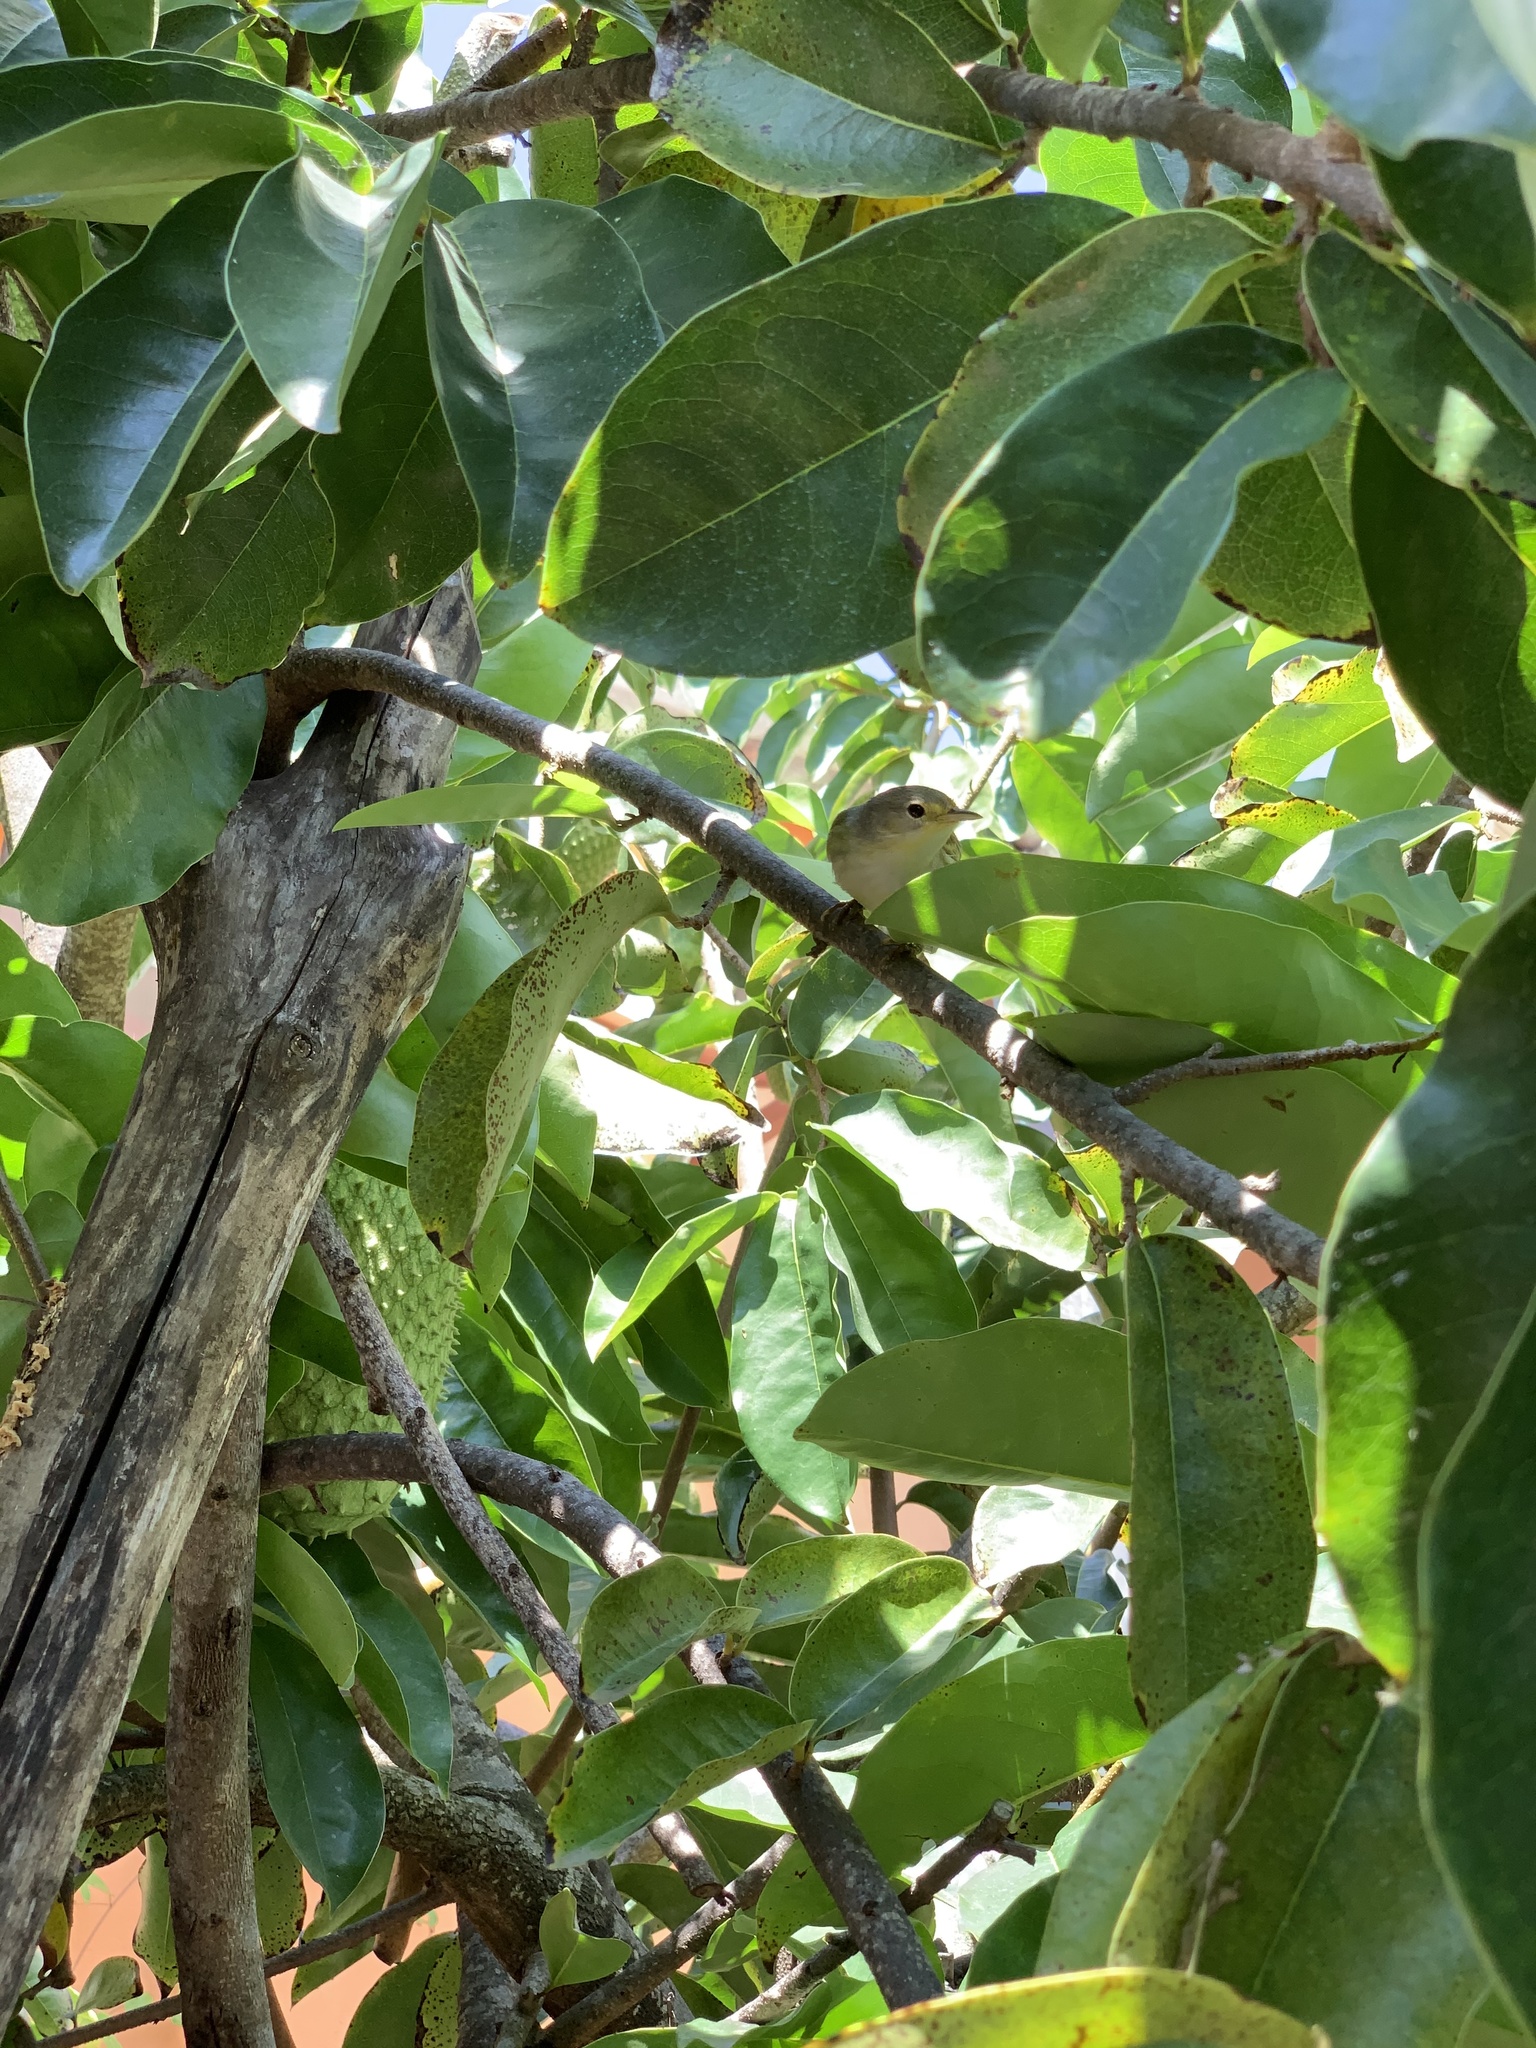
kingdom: Animalia
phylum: Chordata
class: Aves
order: Passeriformes
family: Parulidae
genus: Setophaga
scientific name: Setophaga petechia
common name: Yellow warbler
